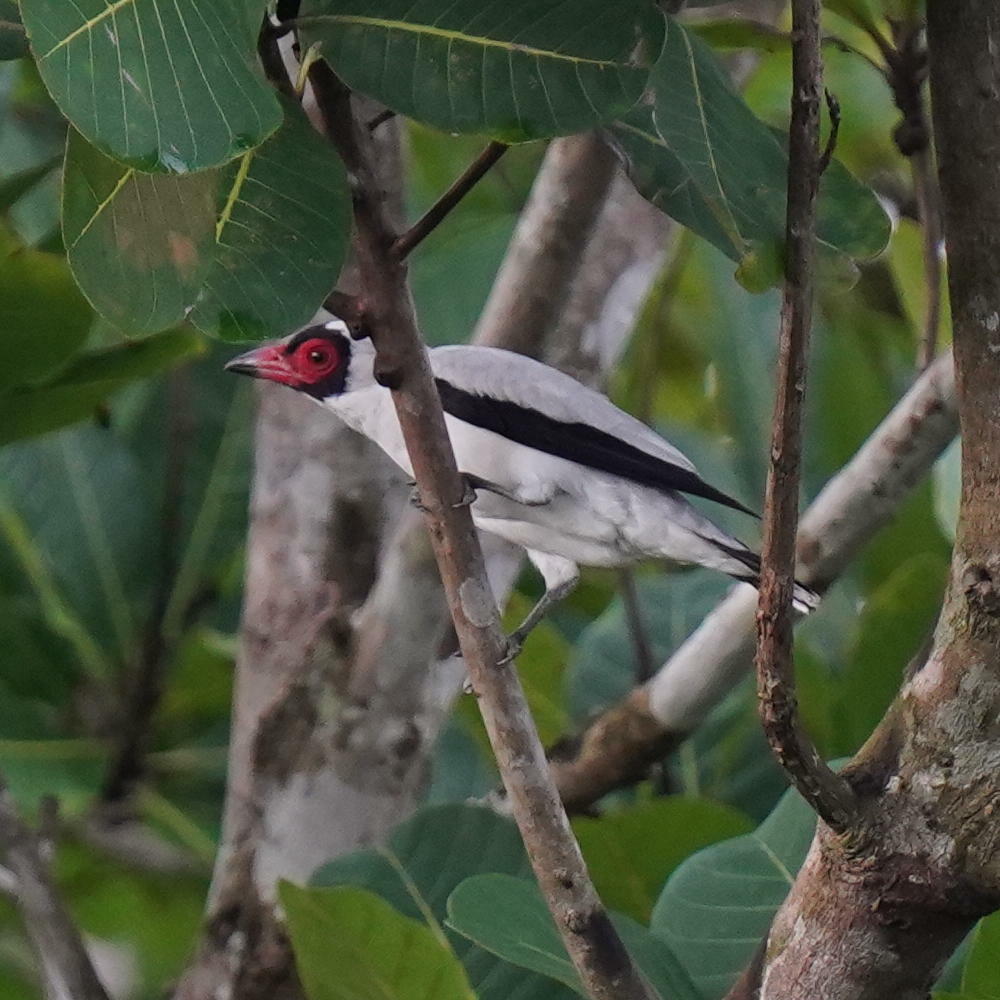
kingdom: Animalia
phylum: Chordata
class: Aves
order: Passeriformes
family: Cotingidae
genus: Tityra
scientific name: Tityra semifasciata
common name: Masked tityra
